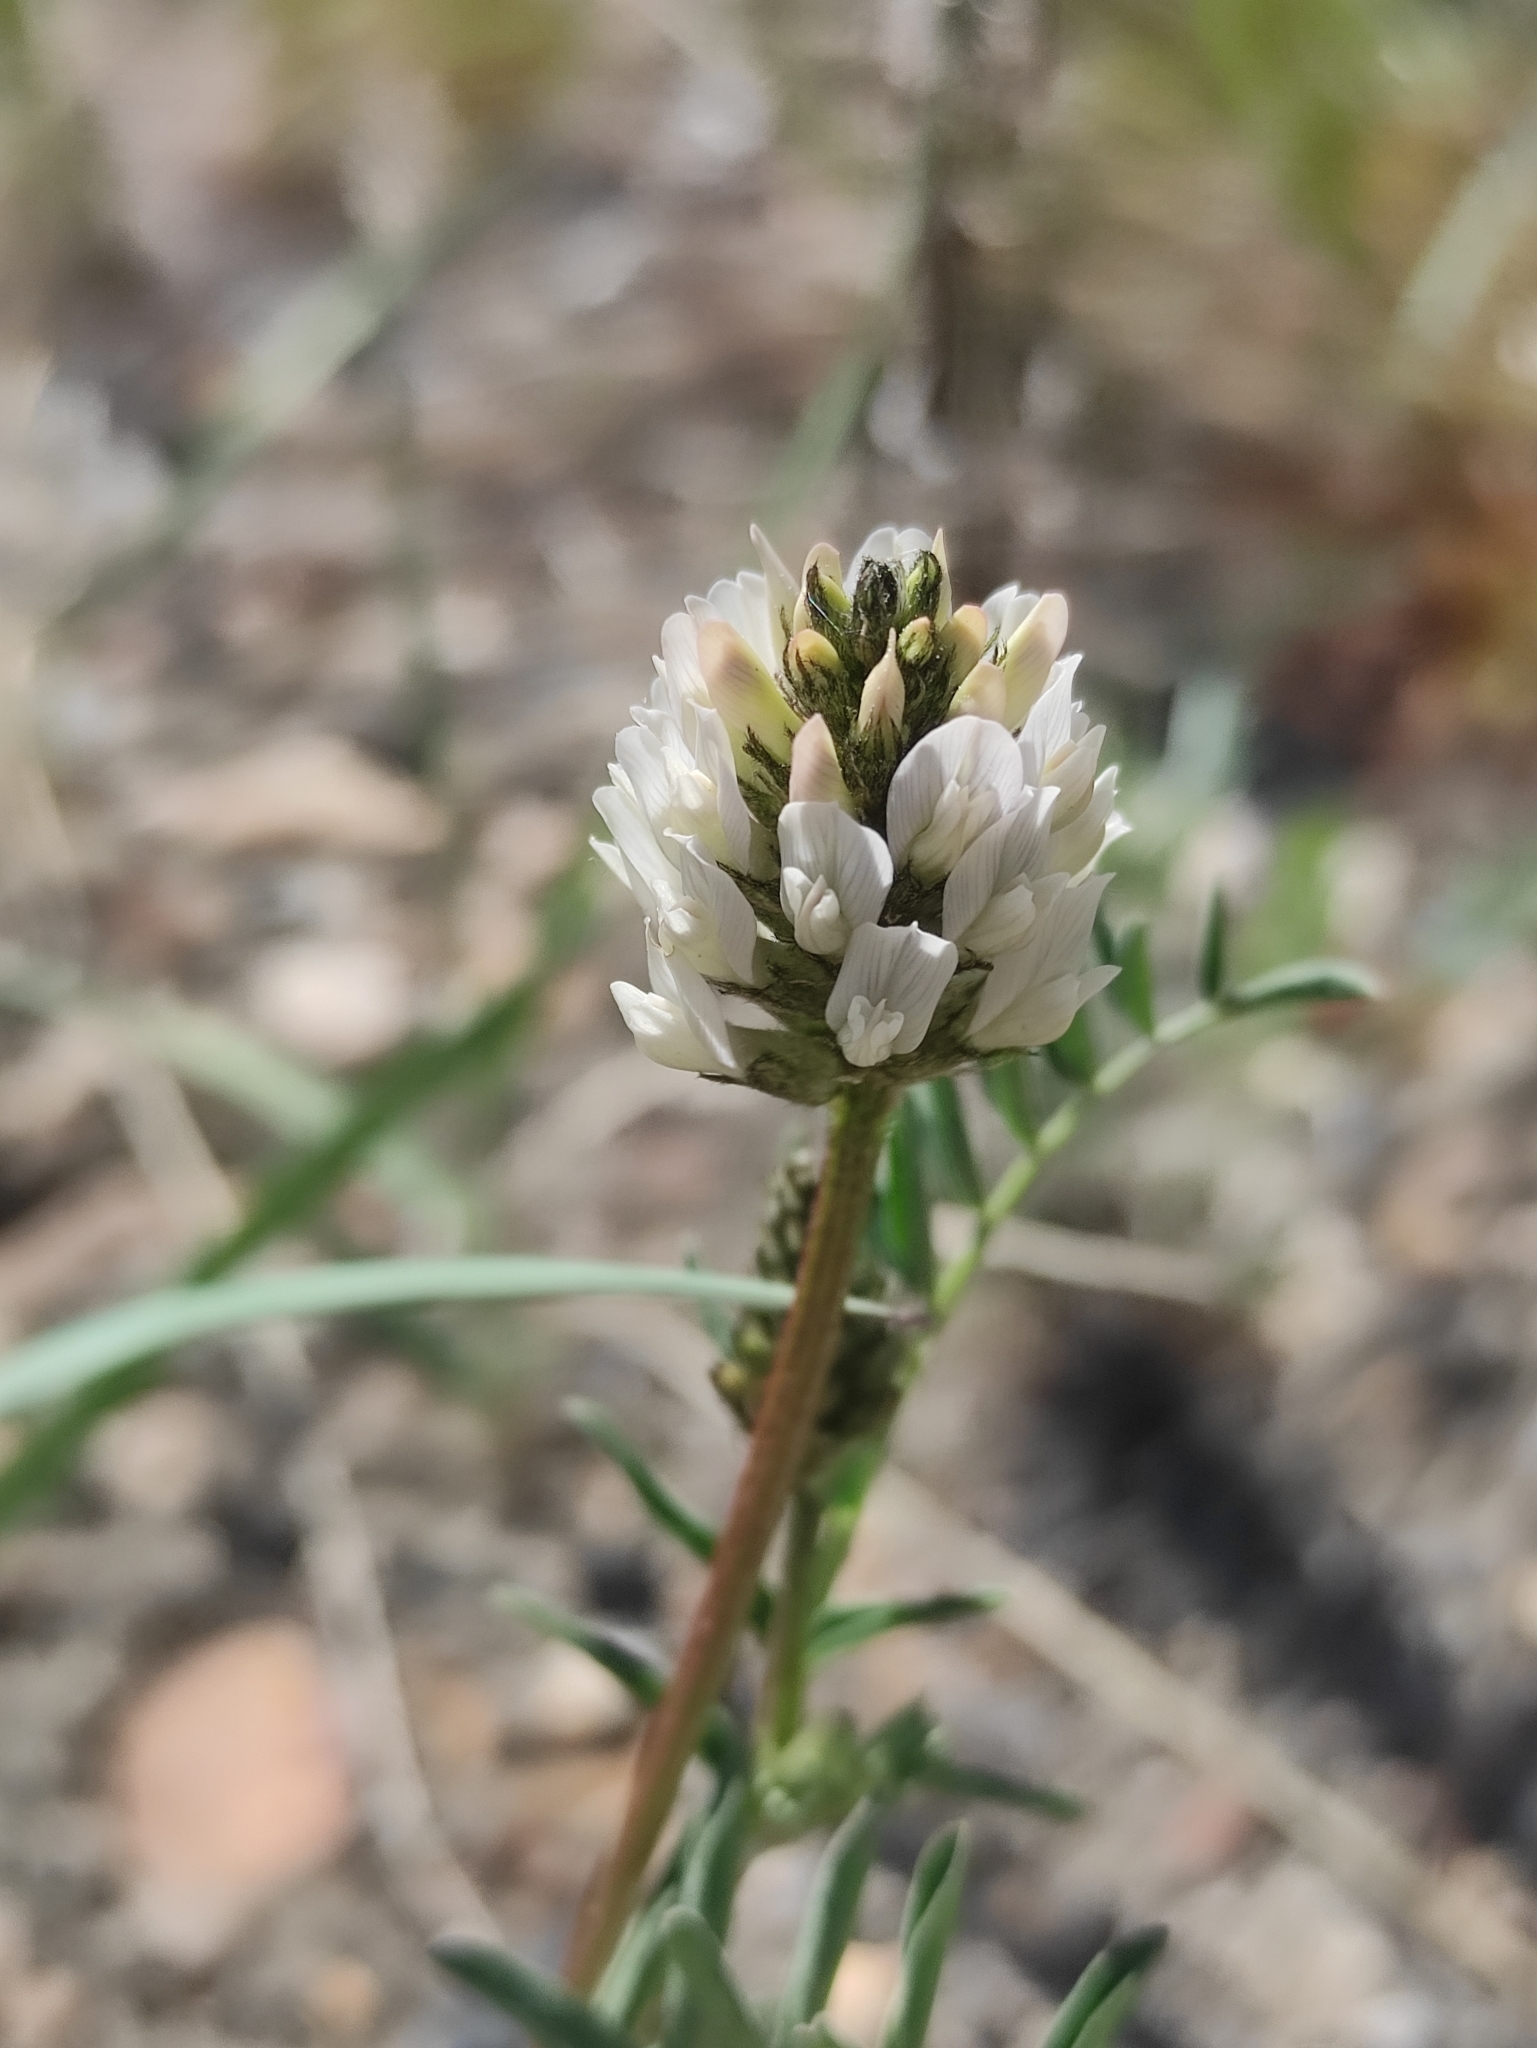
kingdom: Plantae
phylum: Tracheophyta
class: Magnoliopsida
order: Fabales
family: Fabaceae
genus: Astragalus
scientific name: Astragalus laxmannii
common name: Laxmann's milk-vetch
